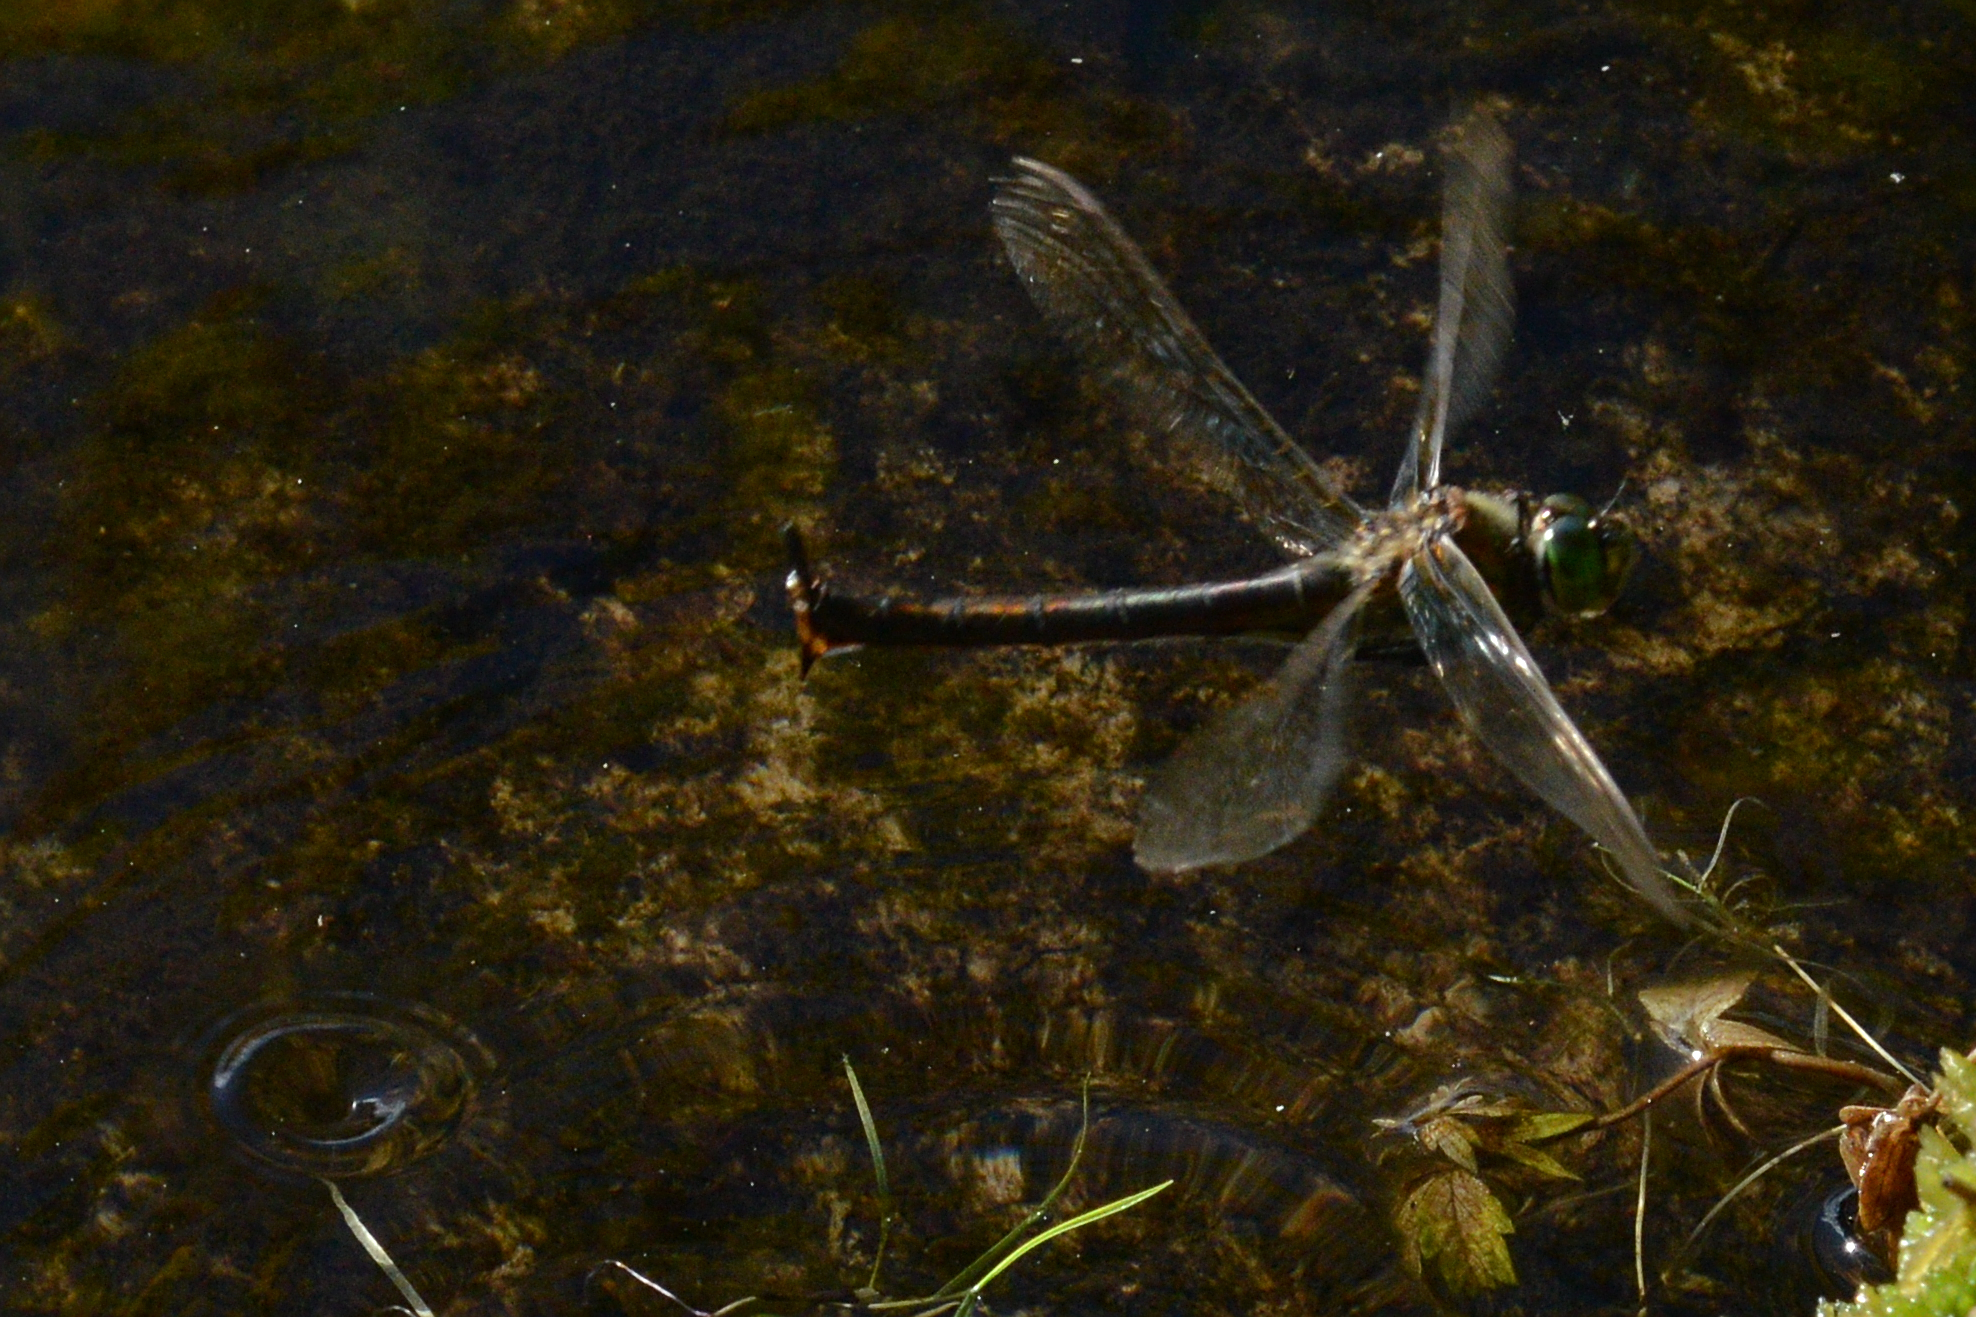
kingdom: Animalia
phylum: Arthropoda
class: Insecta
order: Odonata
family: Corduliidae
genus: Somatochlora
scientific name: Somatochlora metallica
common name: Brilliant emerald
